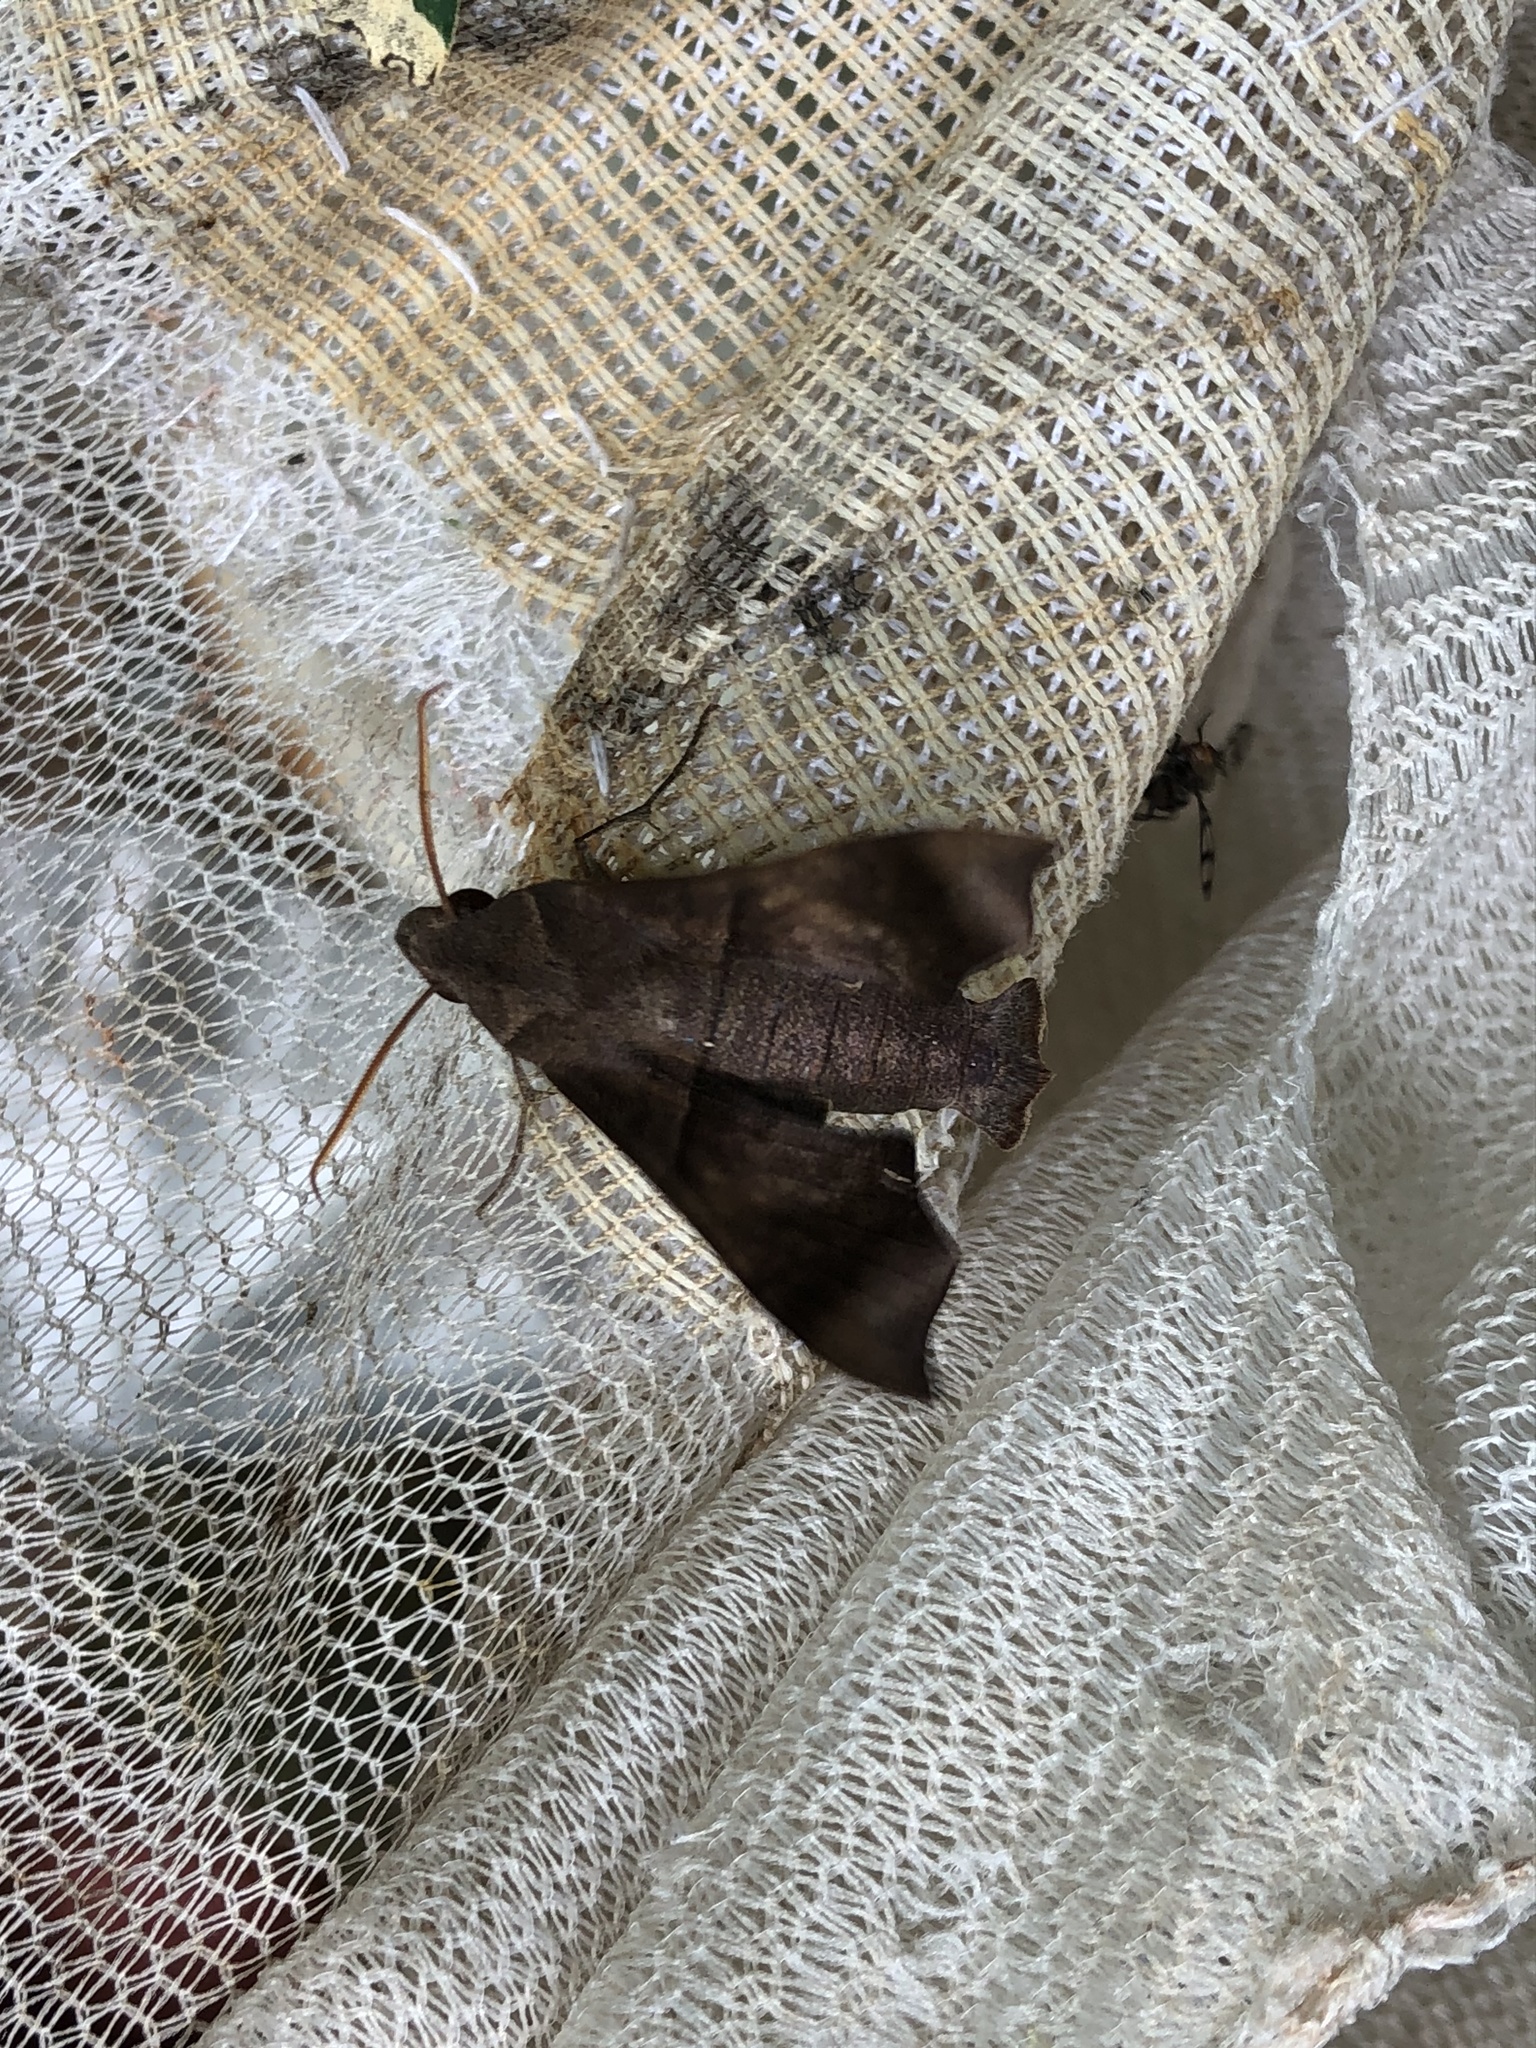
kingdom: Animalia
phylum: Arthropoda
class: Insecta
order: Lepidoptera
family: Sphingidae
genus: Perigonia
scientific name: Perigonia stulta
